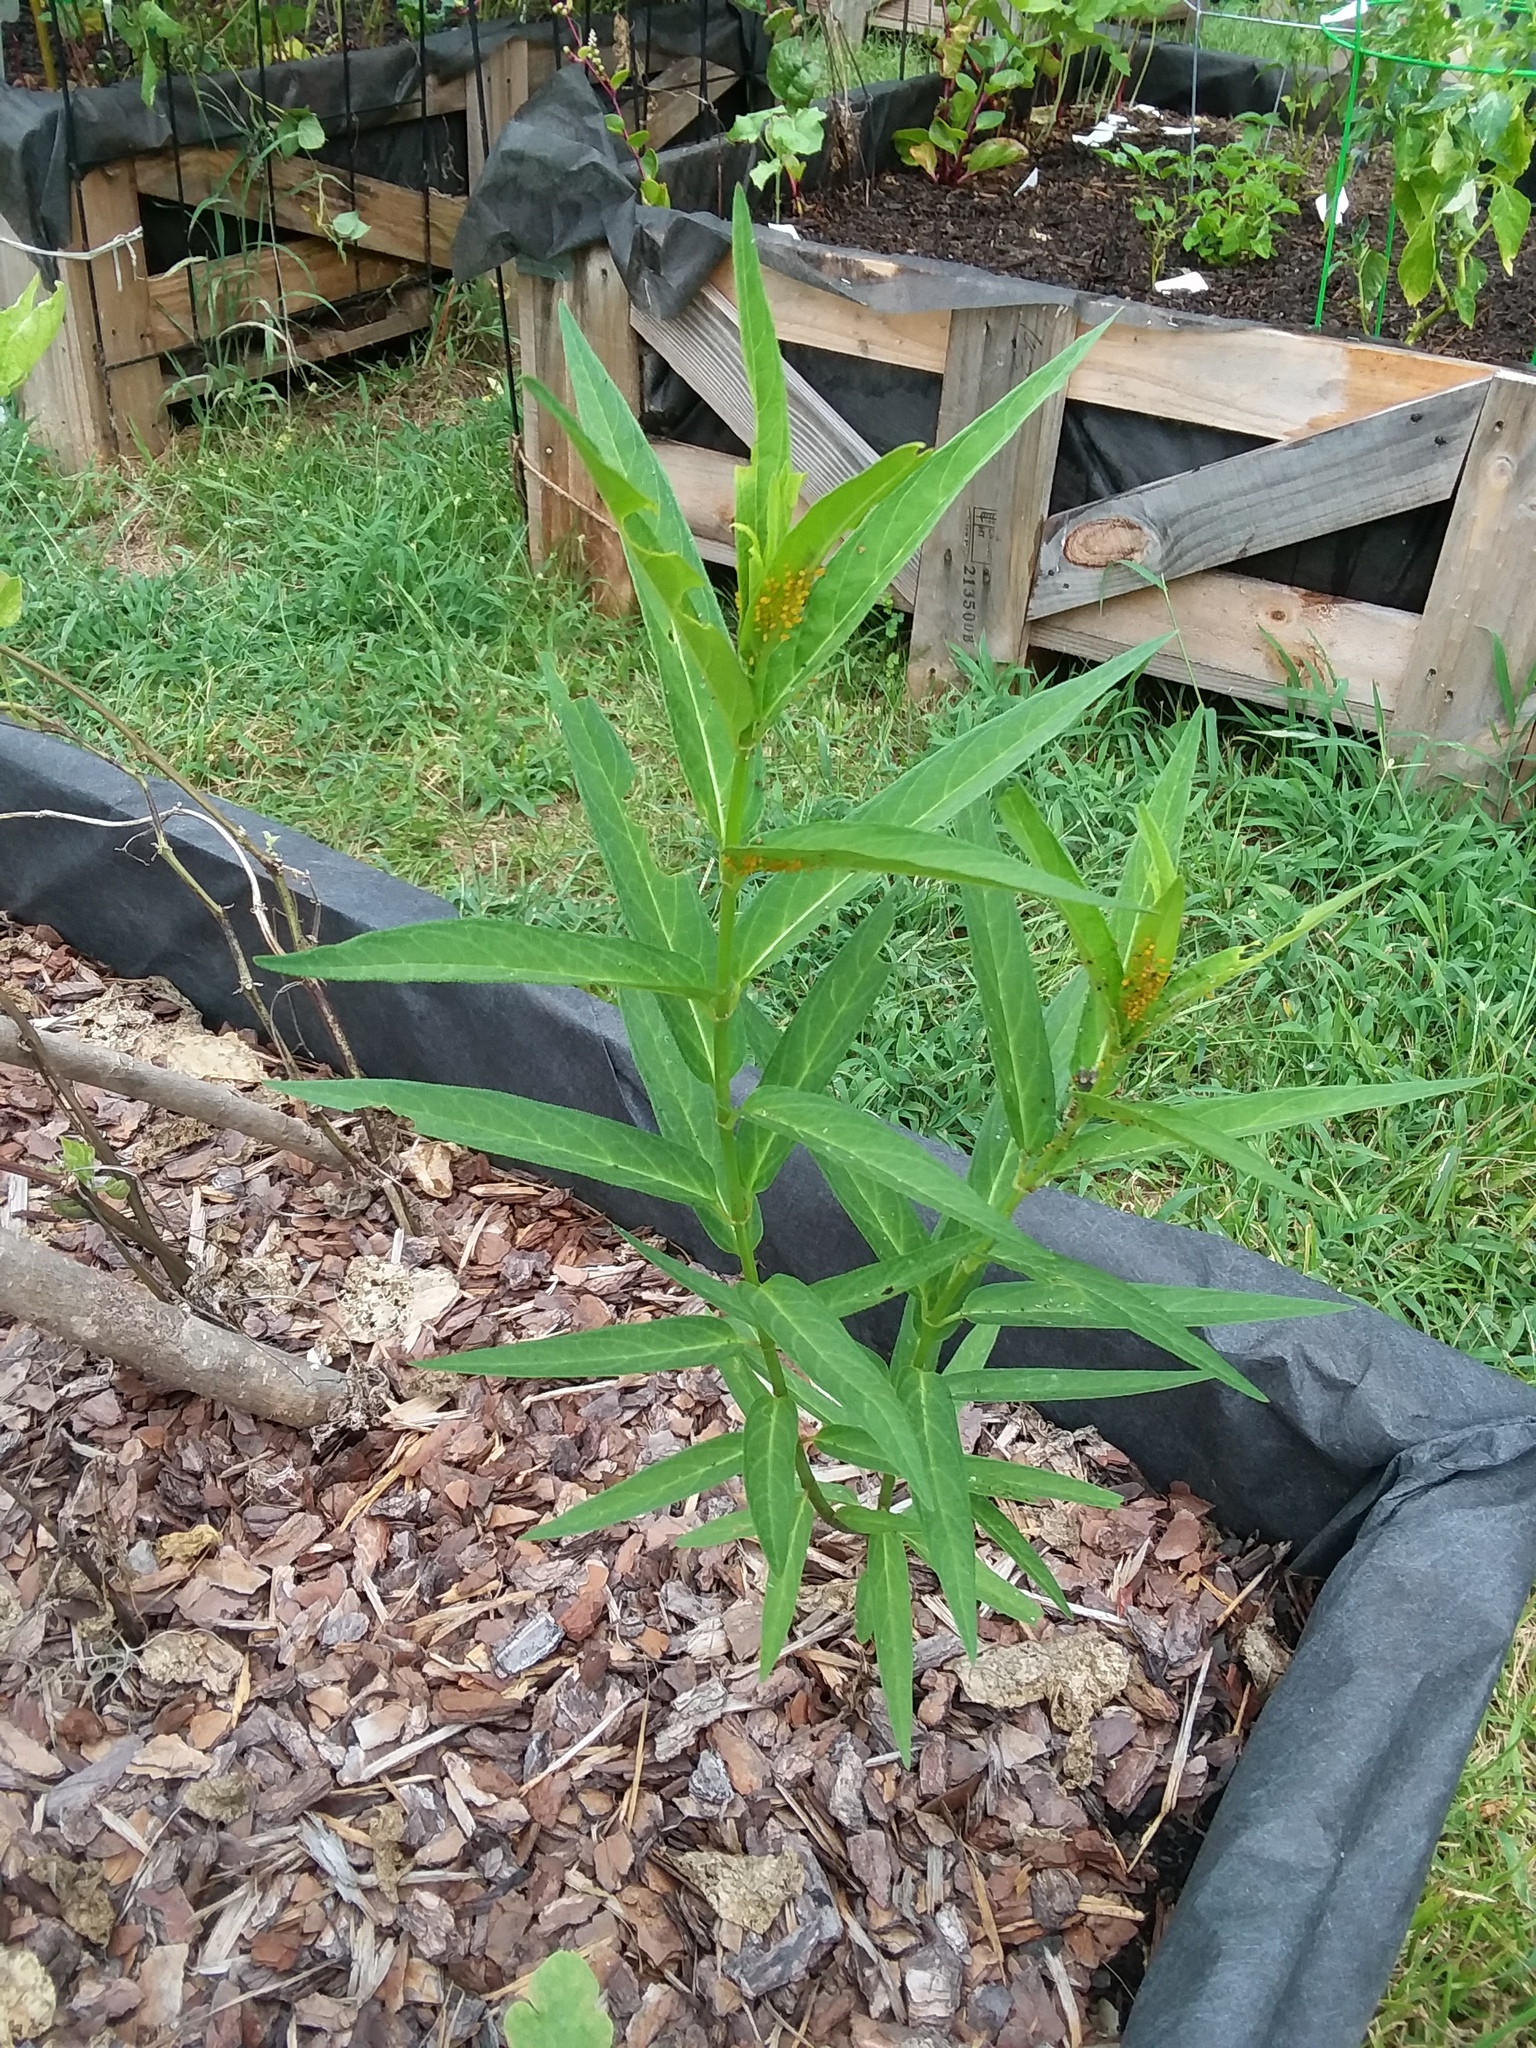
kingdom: Animalia
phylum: Arthropoda
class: Insecta
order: Hemiptera
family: Aphididae
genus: Aphis
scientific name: Aphis nerii
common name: Oleander aphid
